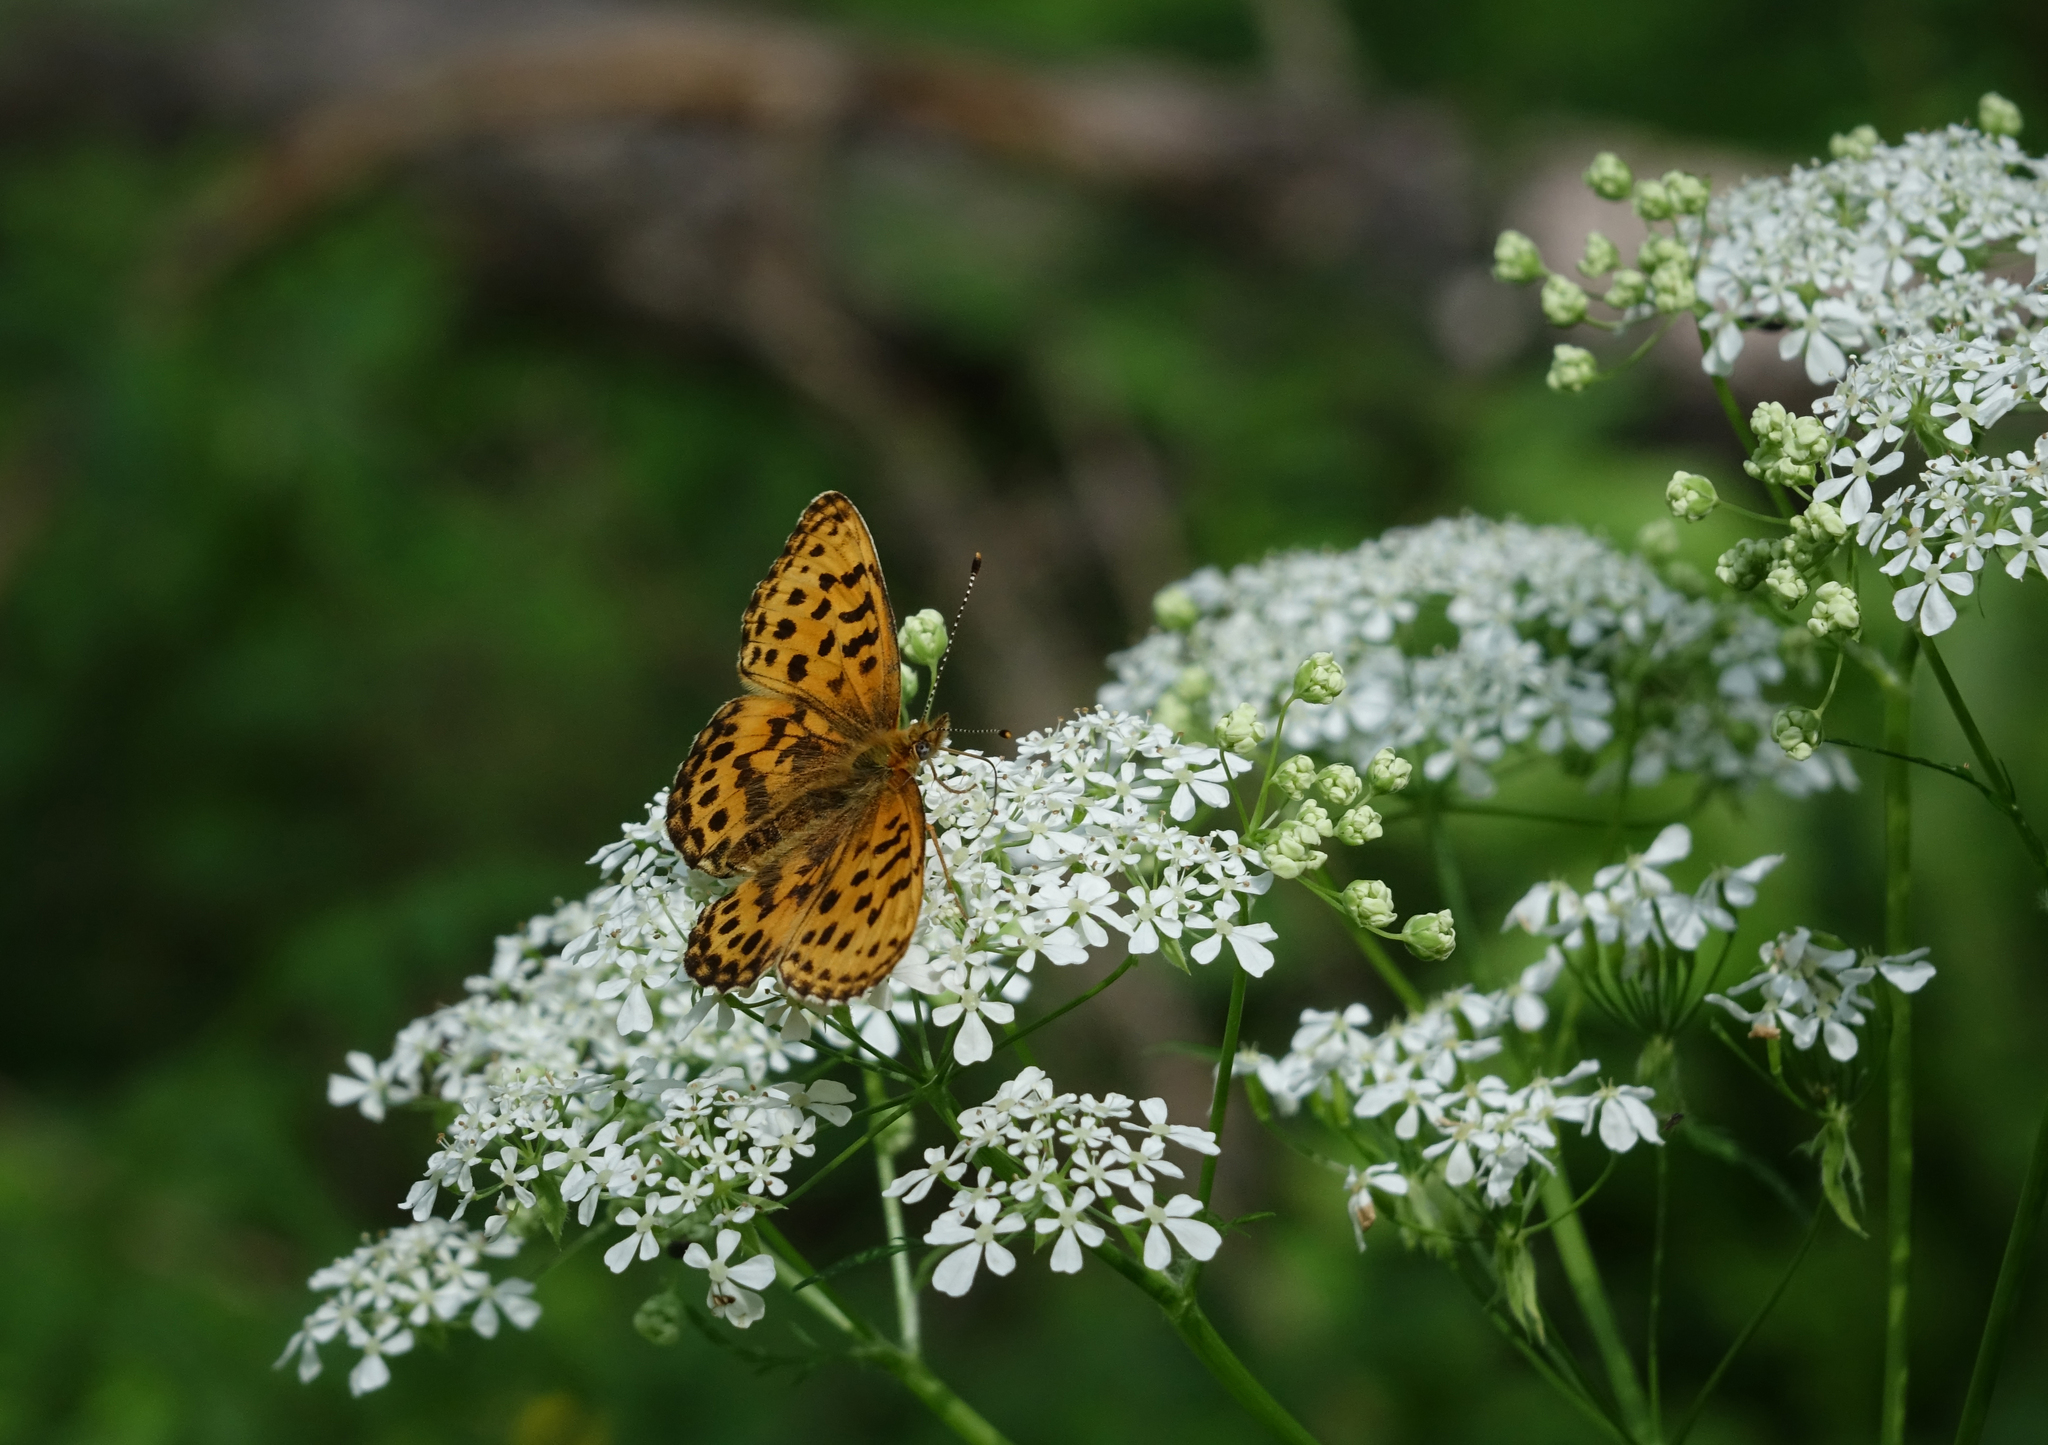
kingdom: Animalia
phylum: Arthropoda
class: Insecta
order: Lepidoptera
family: Nymphalidae
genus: Boloria
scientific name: Boloria thore
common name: Thor's fritillary
